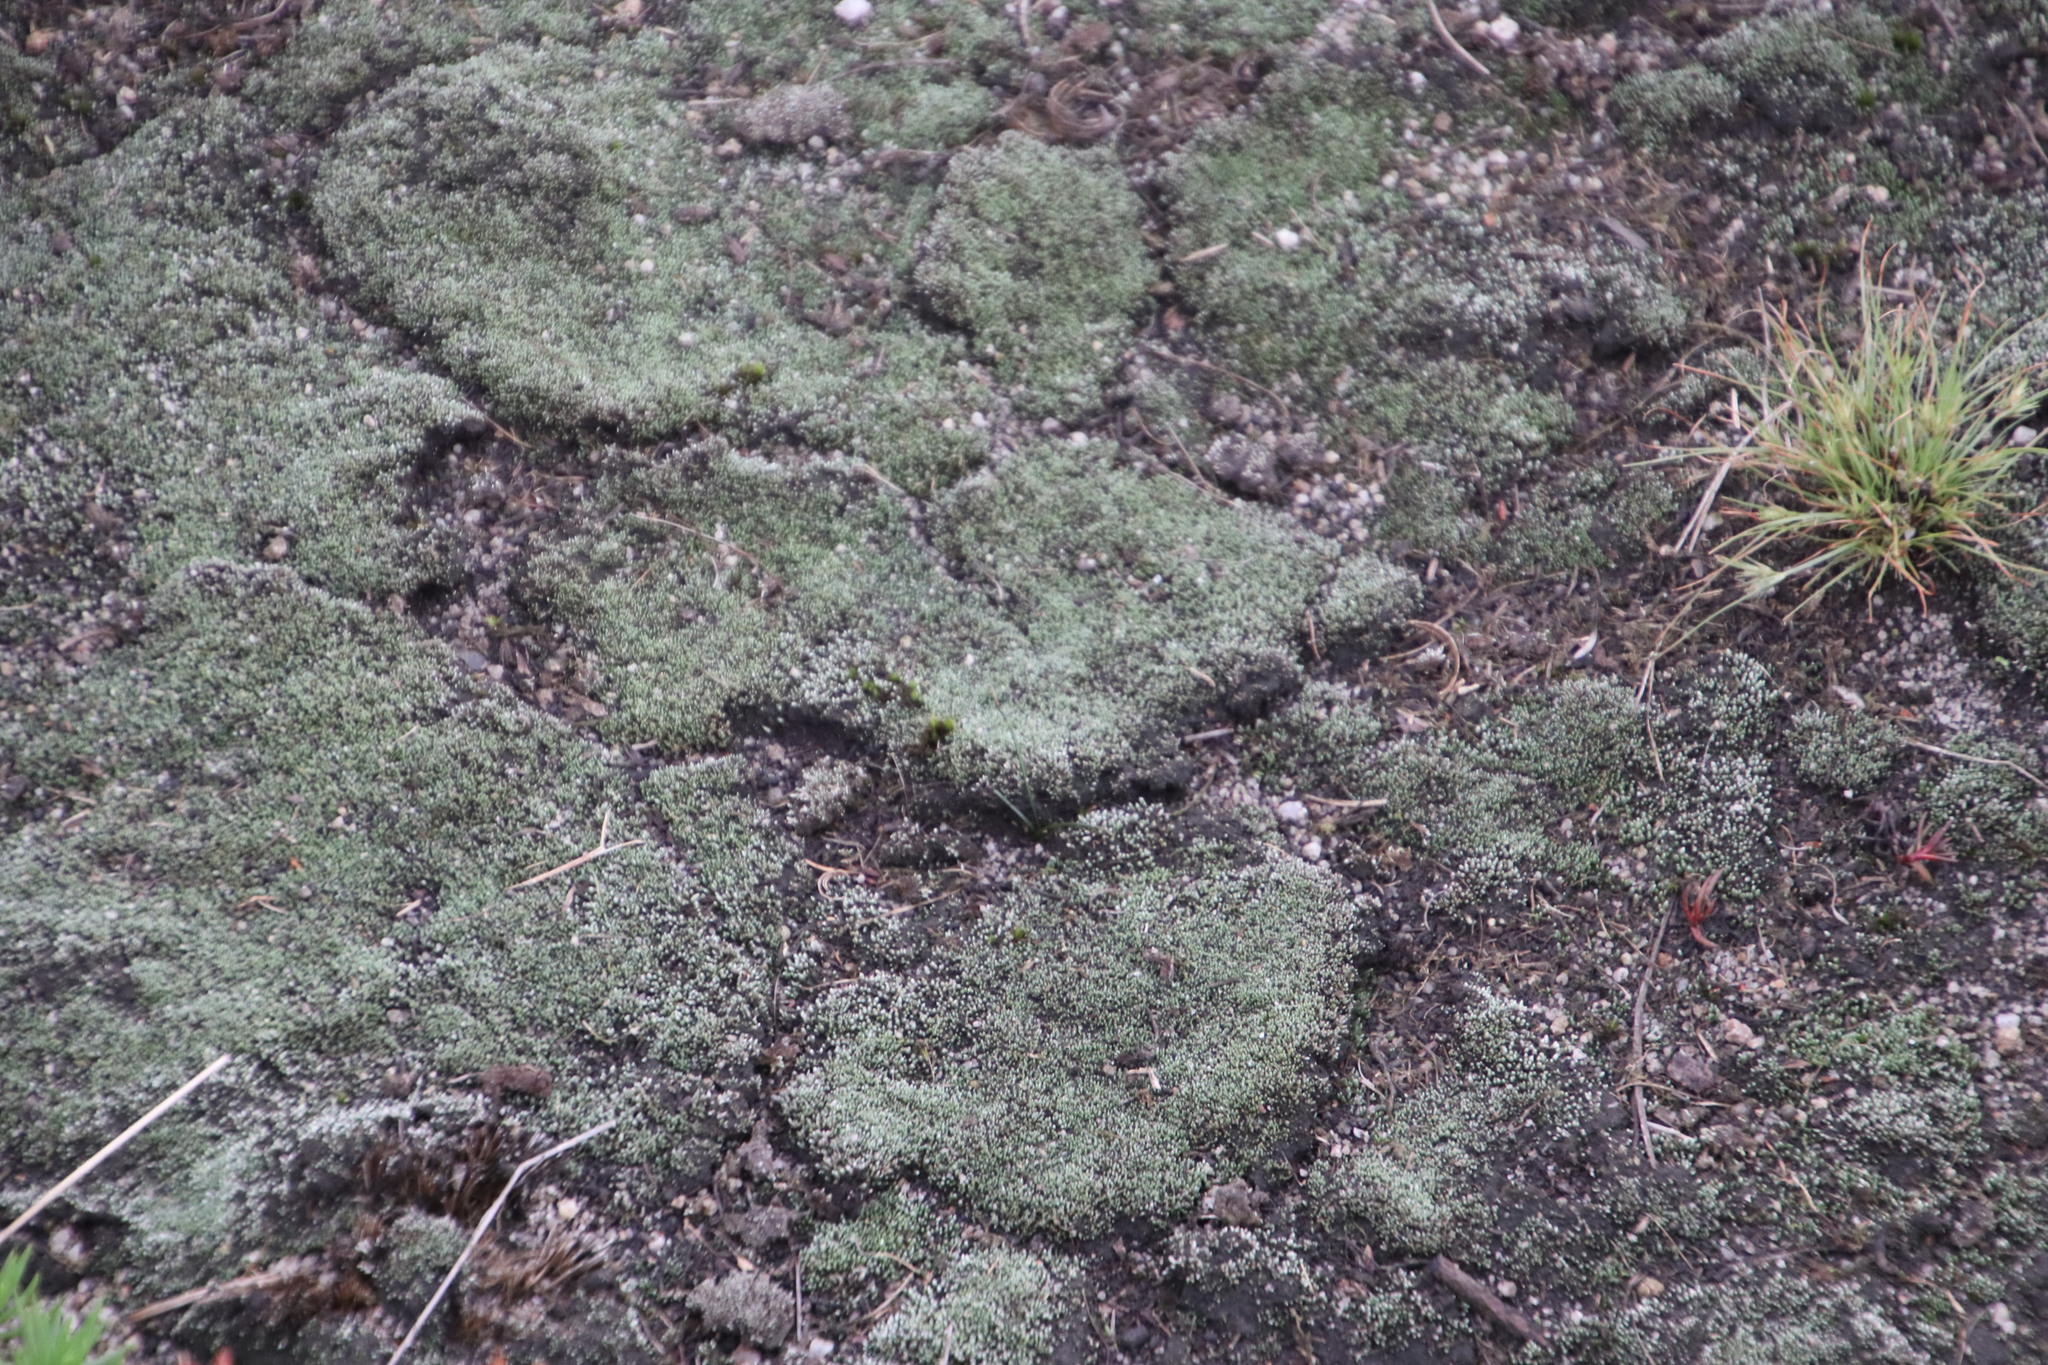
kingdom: Plantae
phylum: Bryophyta
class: Bryopsida
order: Bryales
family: Bryaceae
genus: Bryum
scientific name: Bryum argenteum
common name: Silver-moss
